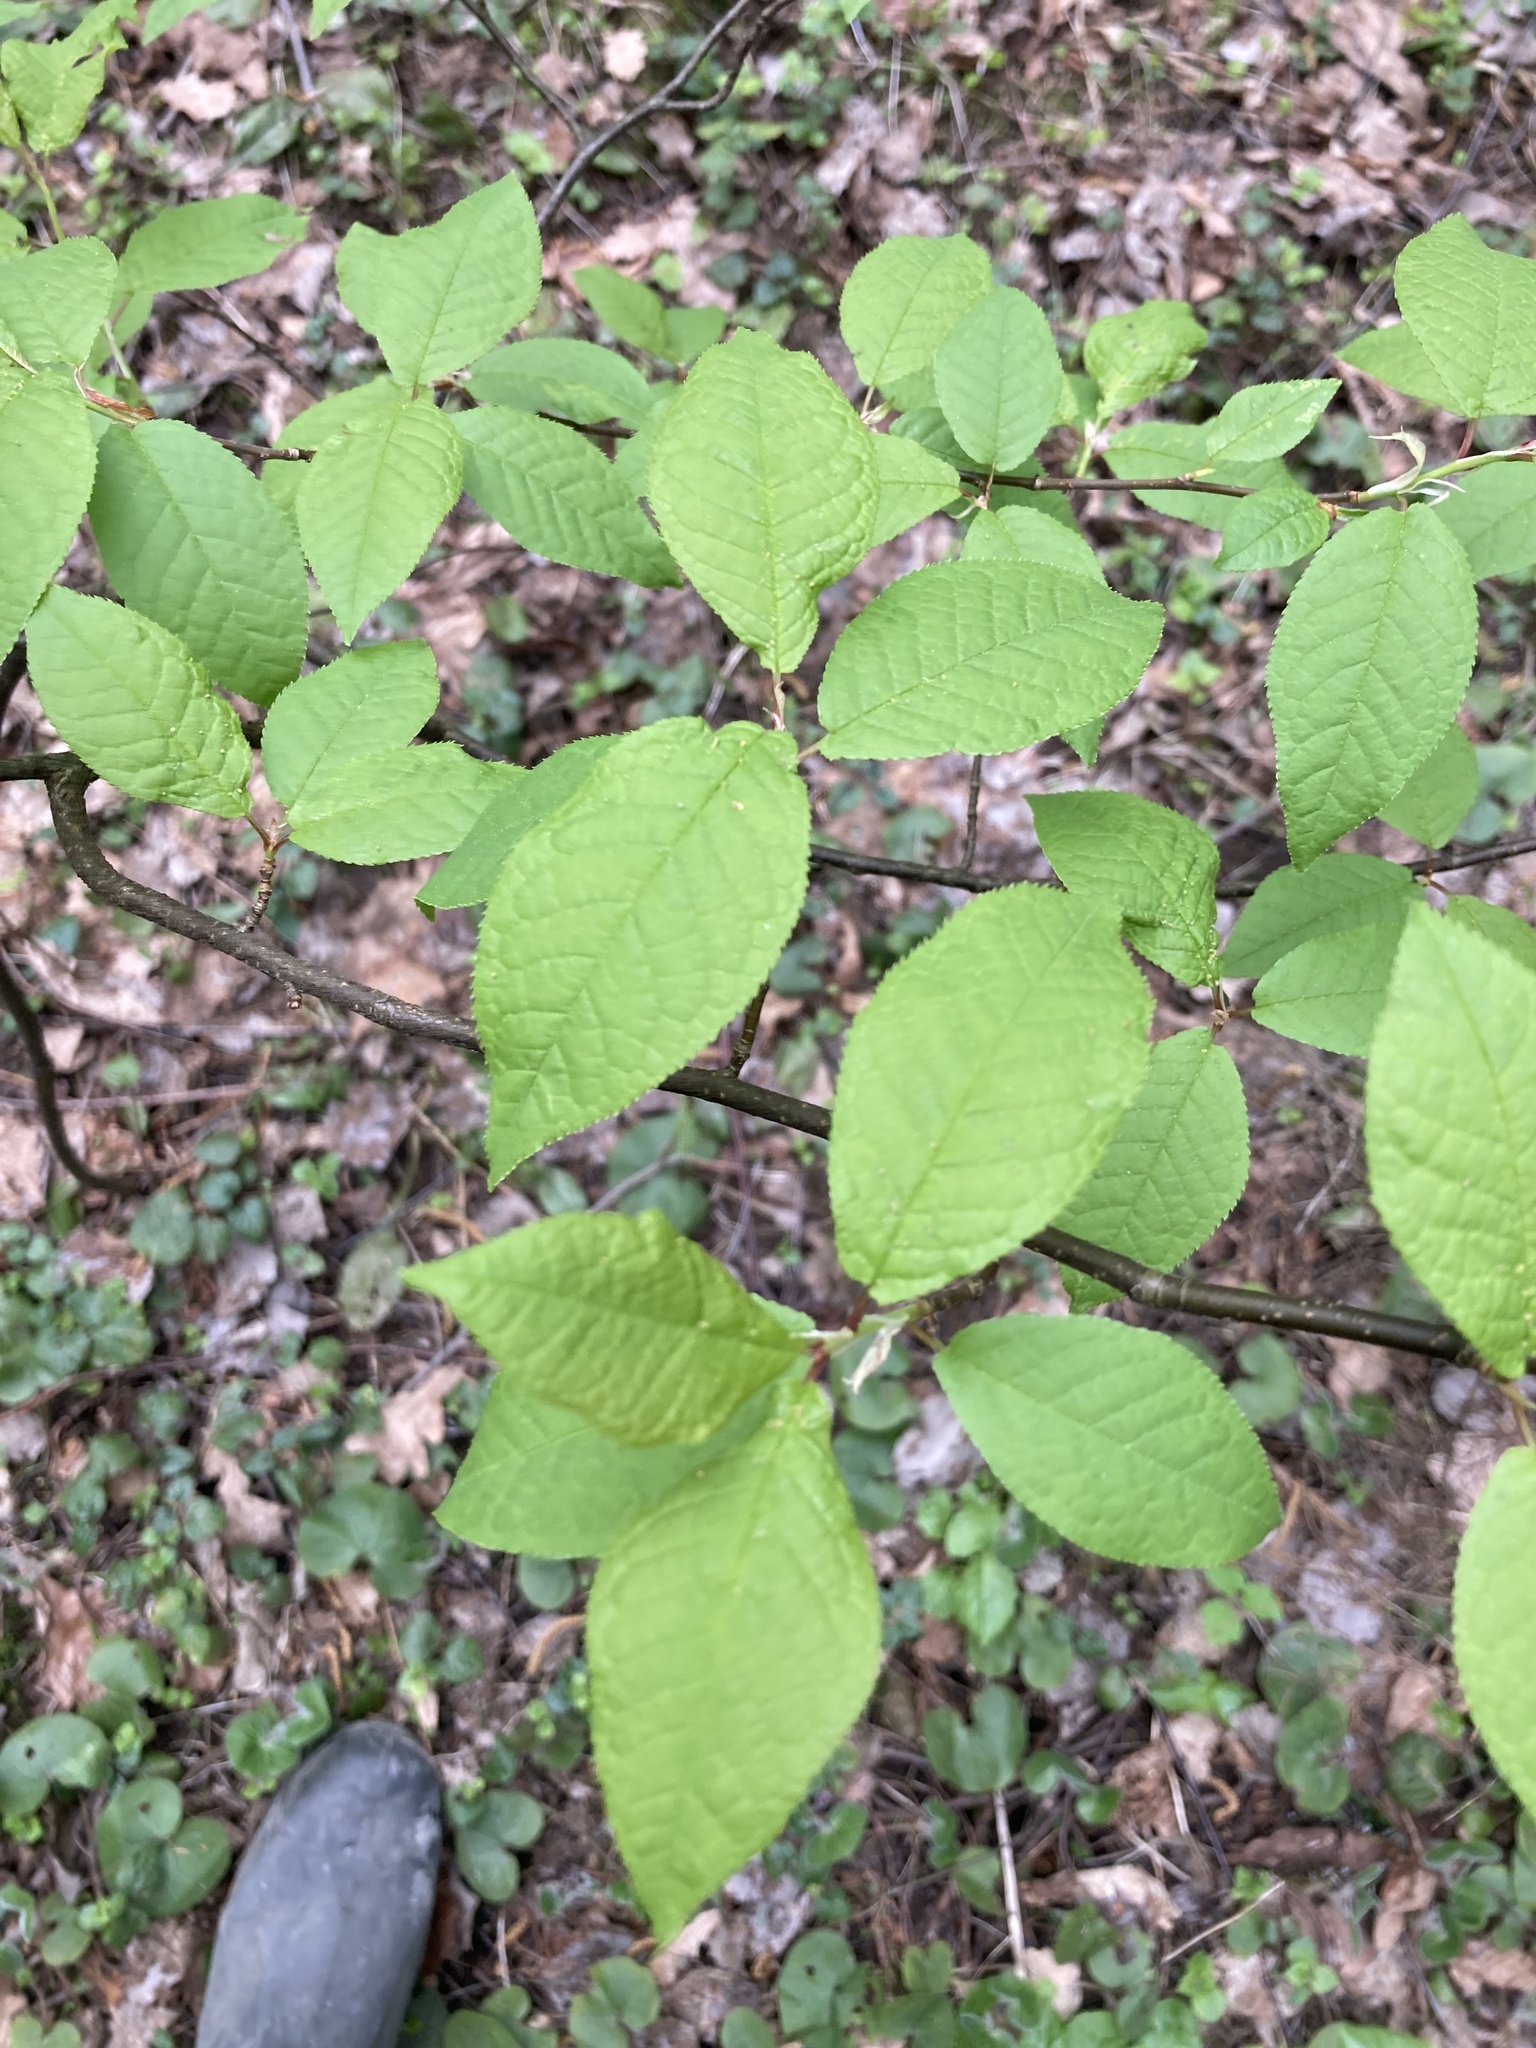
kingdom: Plantae
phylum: Tracheophyta
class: Magnoliopsida
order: Rosales
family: Rosaceae
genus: Prunus
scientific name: Prunus padus
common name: Bird cherry
